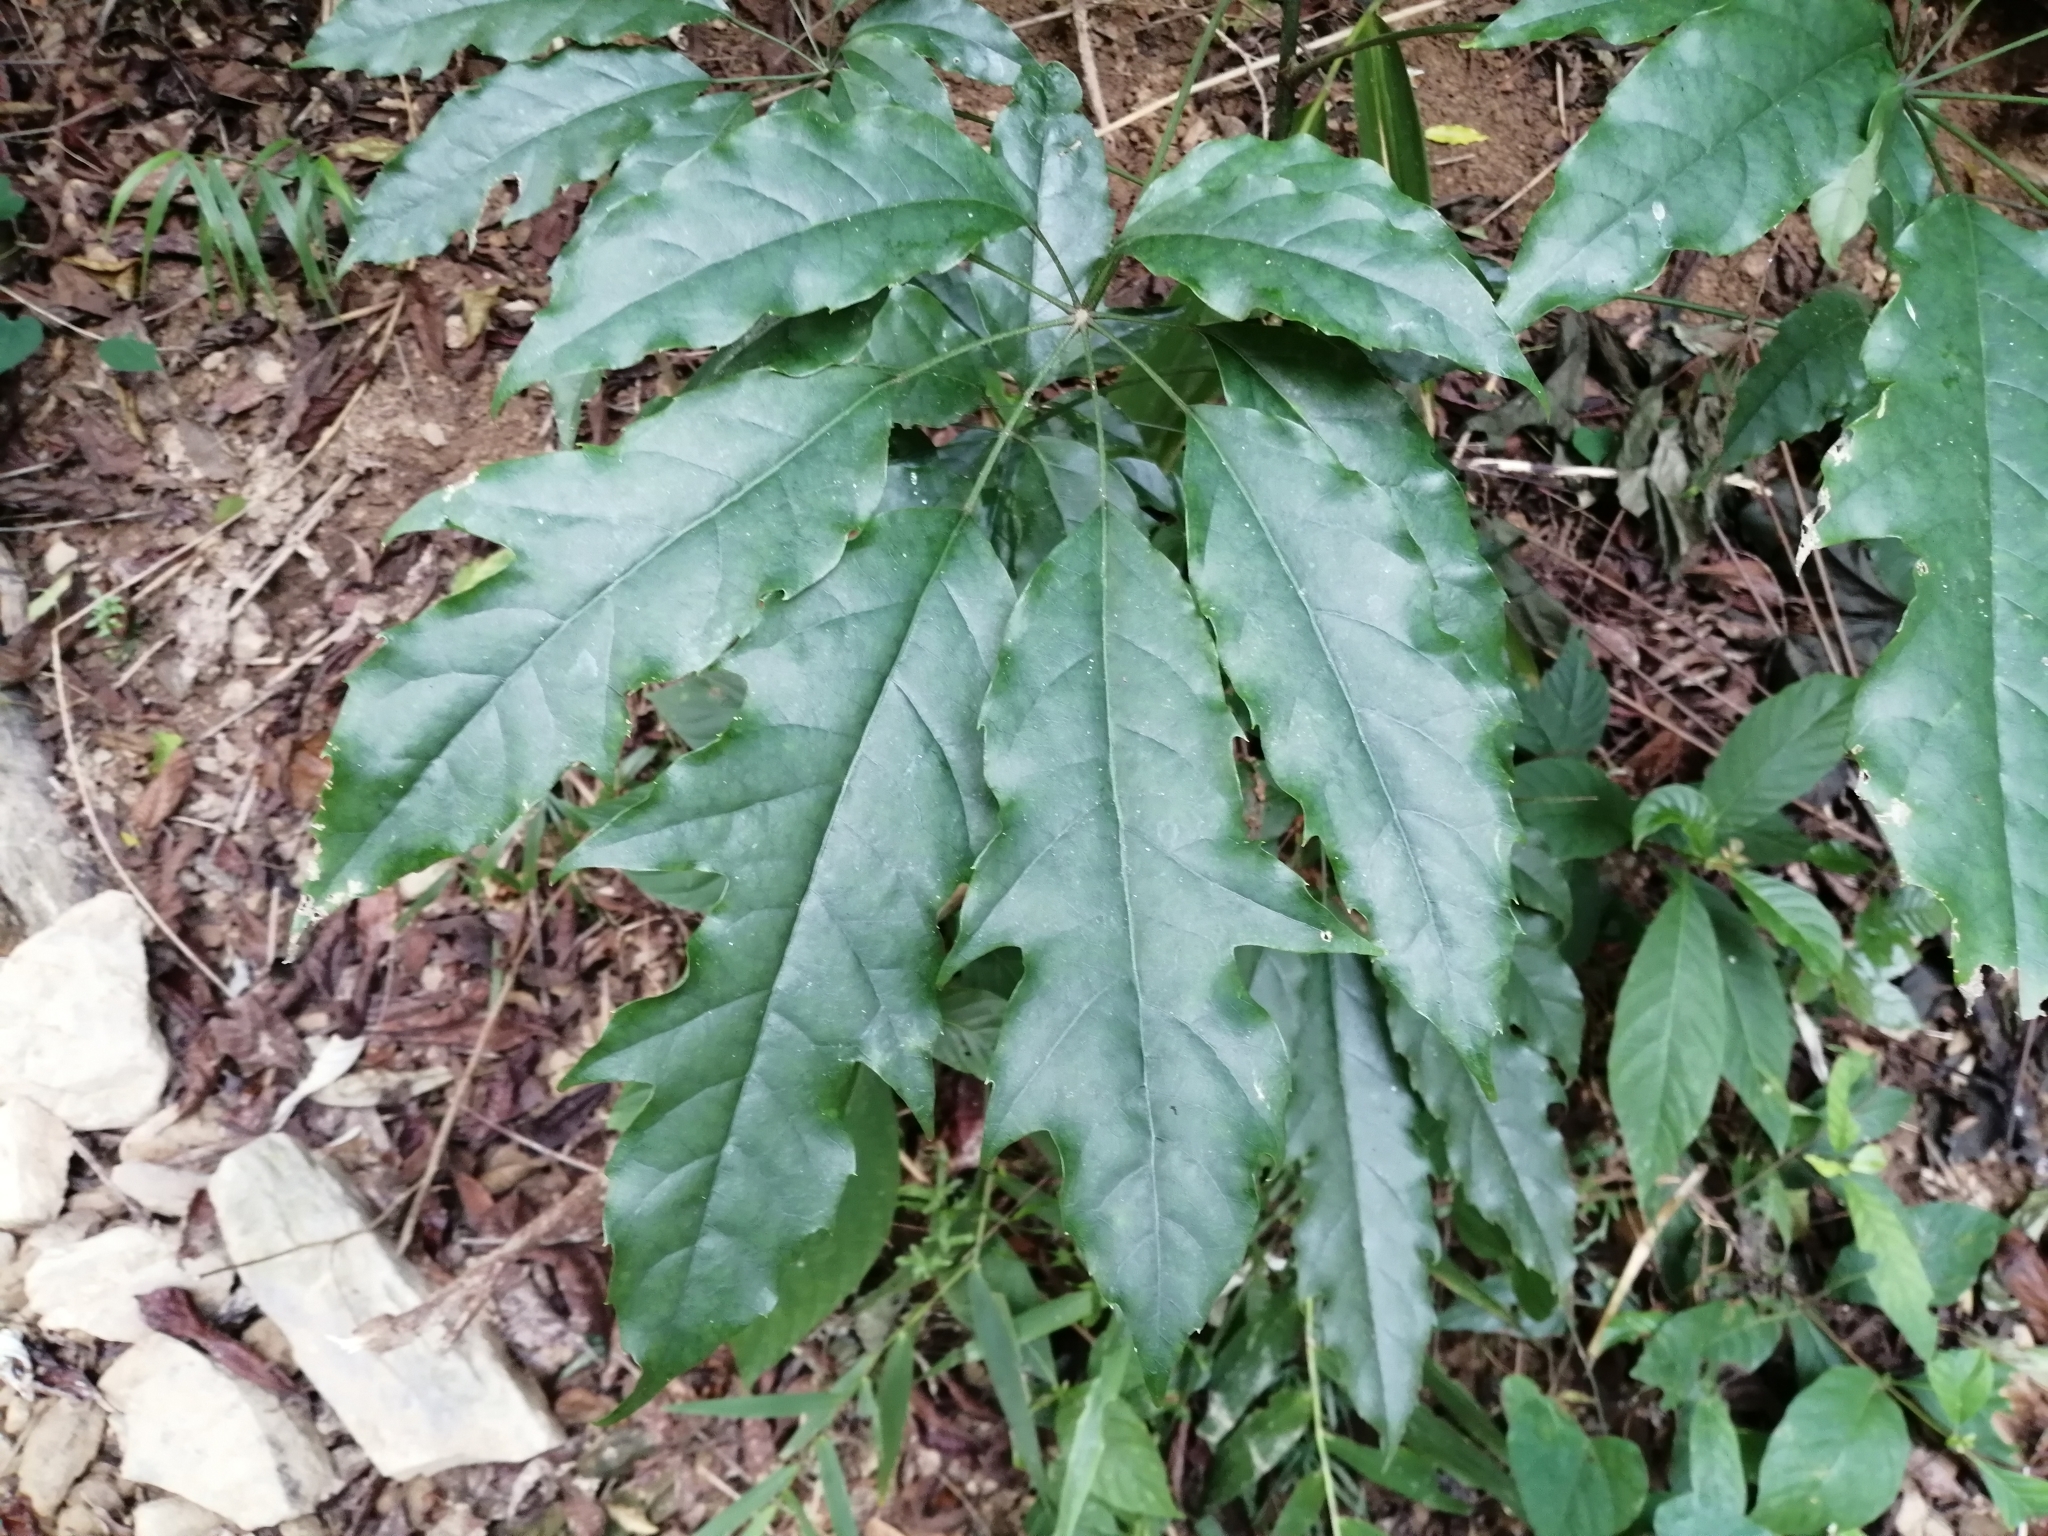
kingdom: Plantae
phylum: Tracheophyta
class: Magnoliopsida
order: Apiales
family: Araliaceae
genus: Heptapleurum
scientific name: Heptapleurum heptaphyllum
